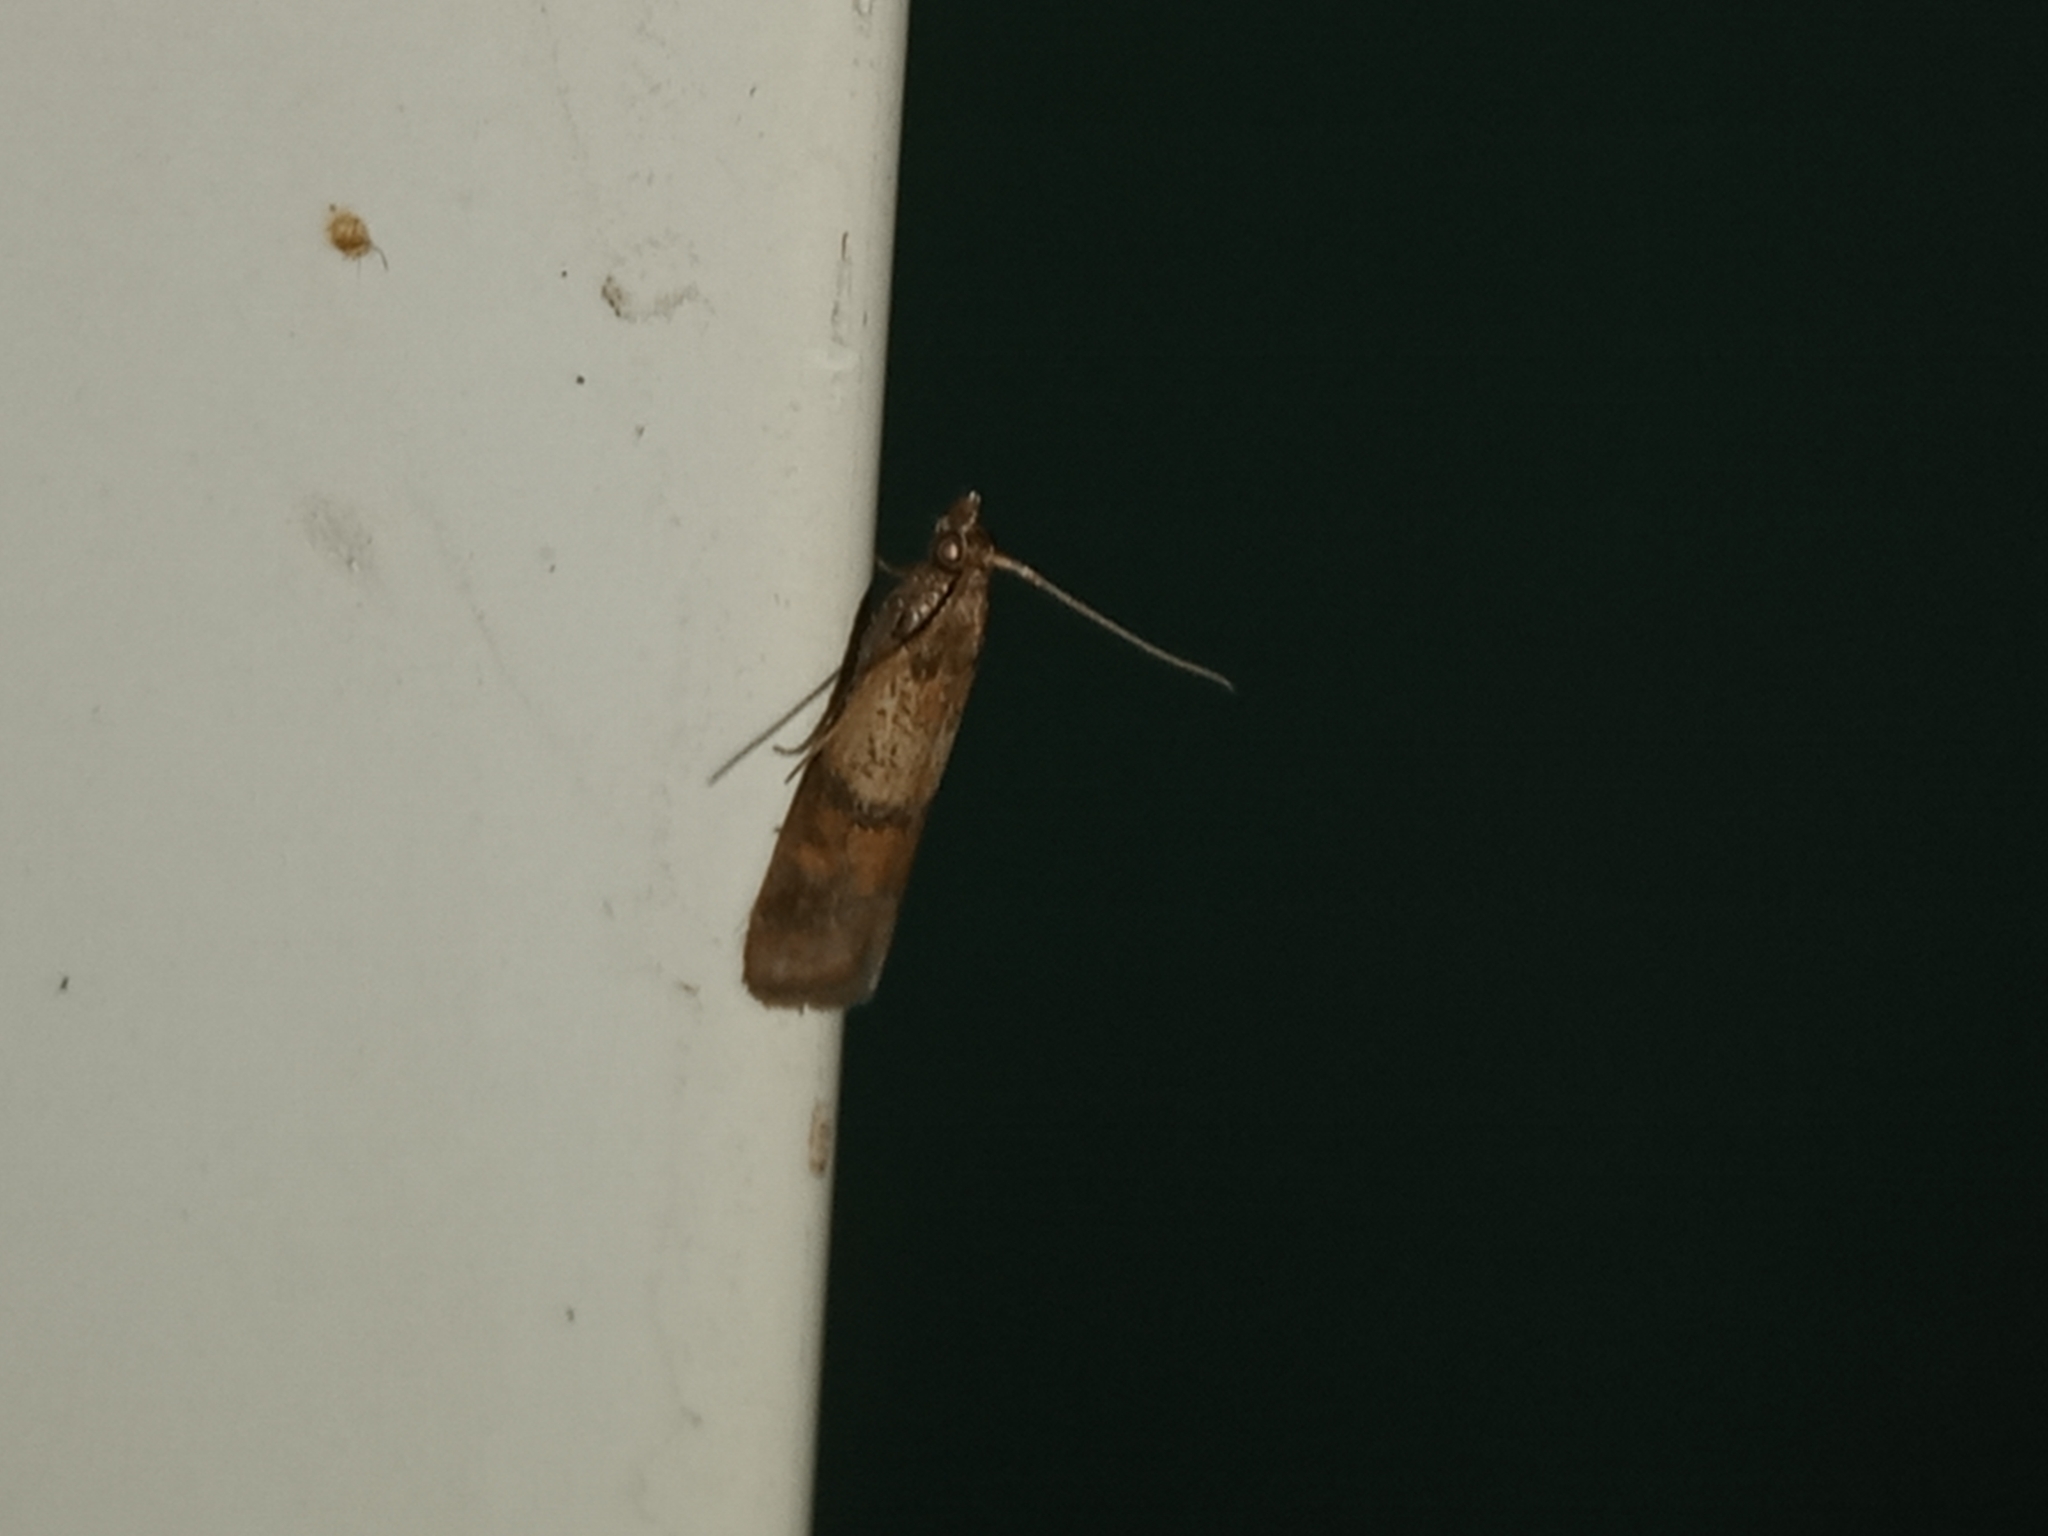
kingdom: Animalia
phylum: Arthropoda
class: Insecta
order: Lepidoptera
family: Pyralidae
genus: Plodia
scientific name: Plodia interpunctella
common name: Indian meal moth
